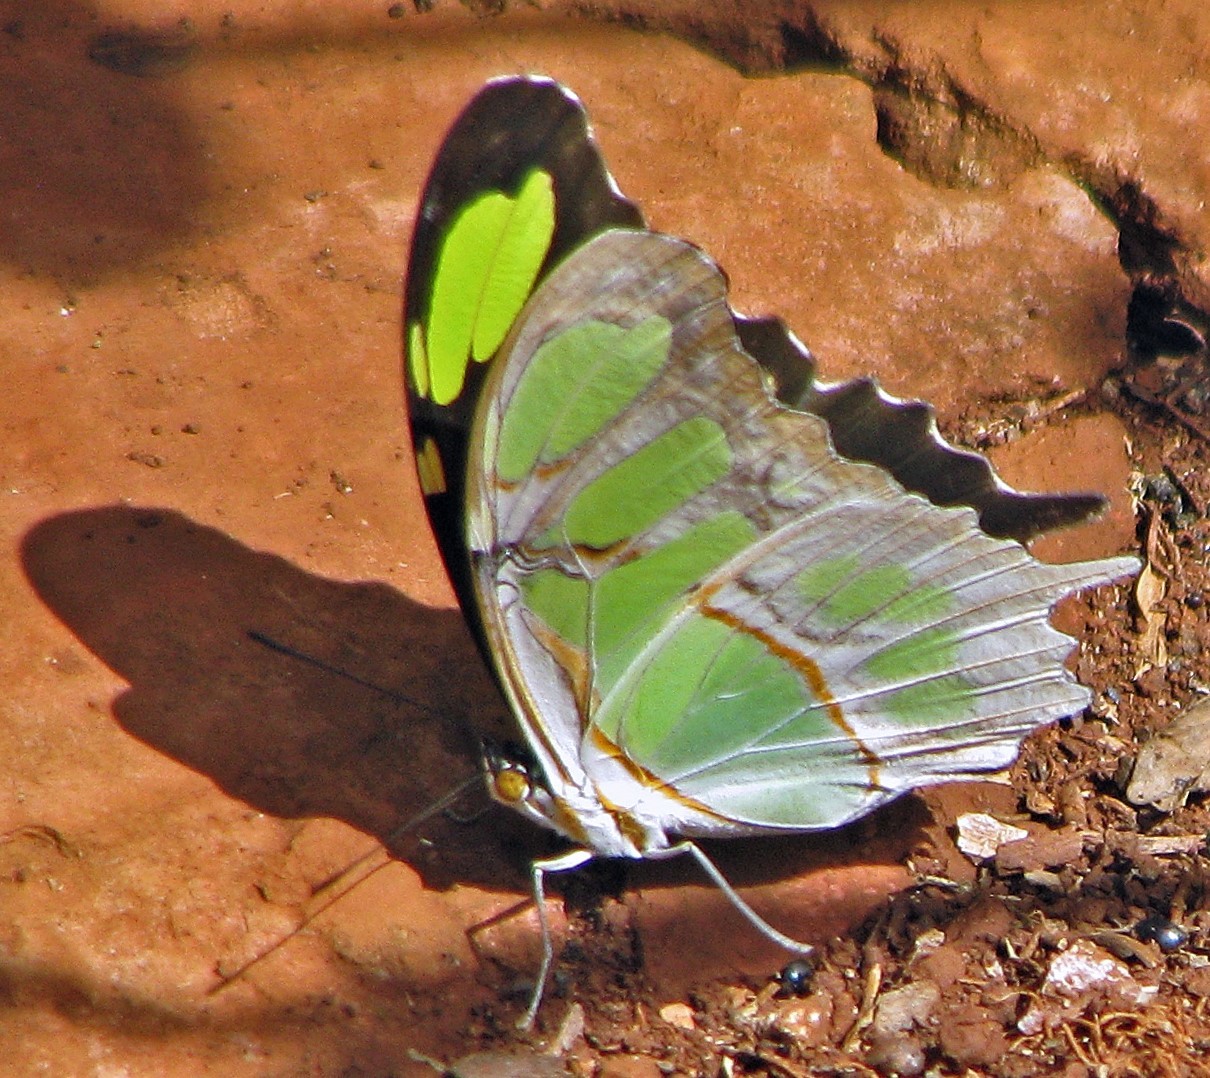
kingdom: Animalia
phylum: Arthropoda
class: Insecta
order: Lepidoptera
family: Nymphalidae
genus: Siproeta
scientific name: Siproeta stelenes
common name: Malachite
